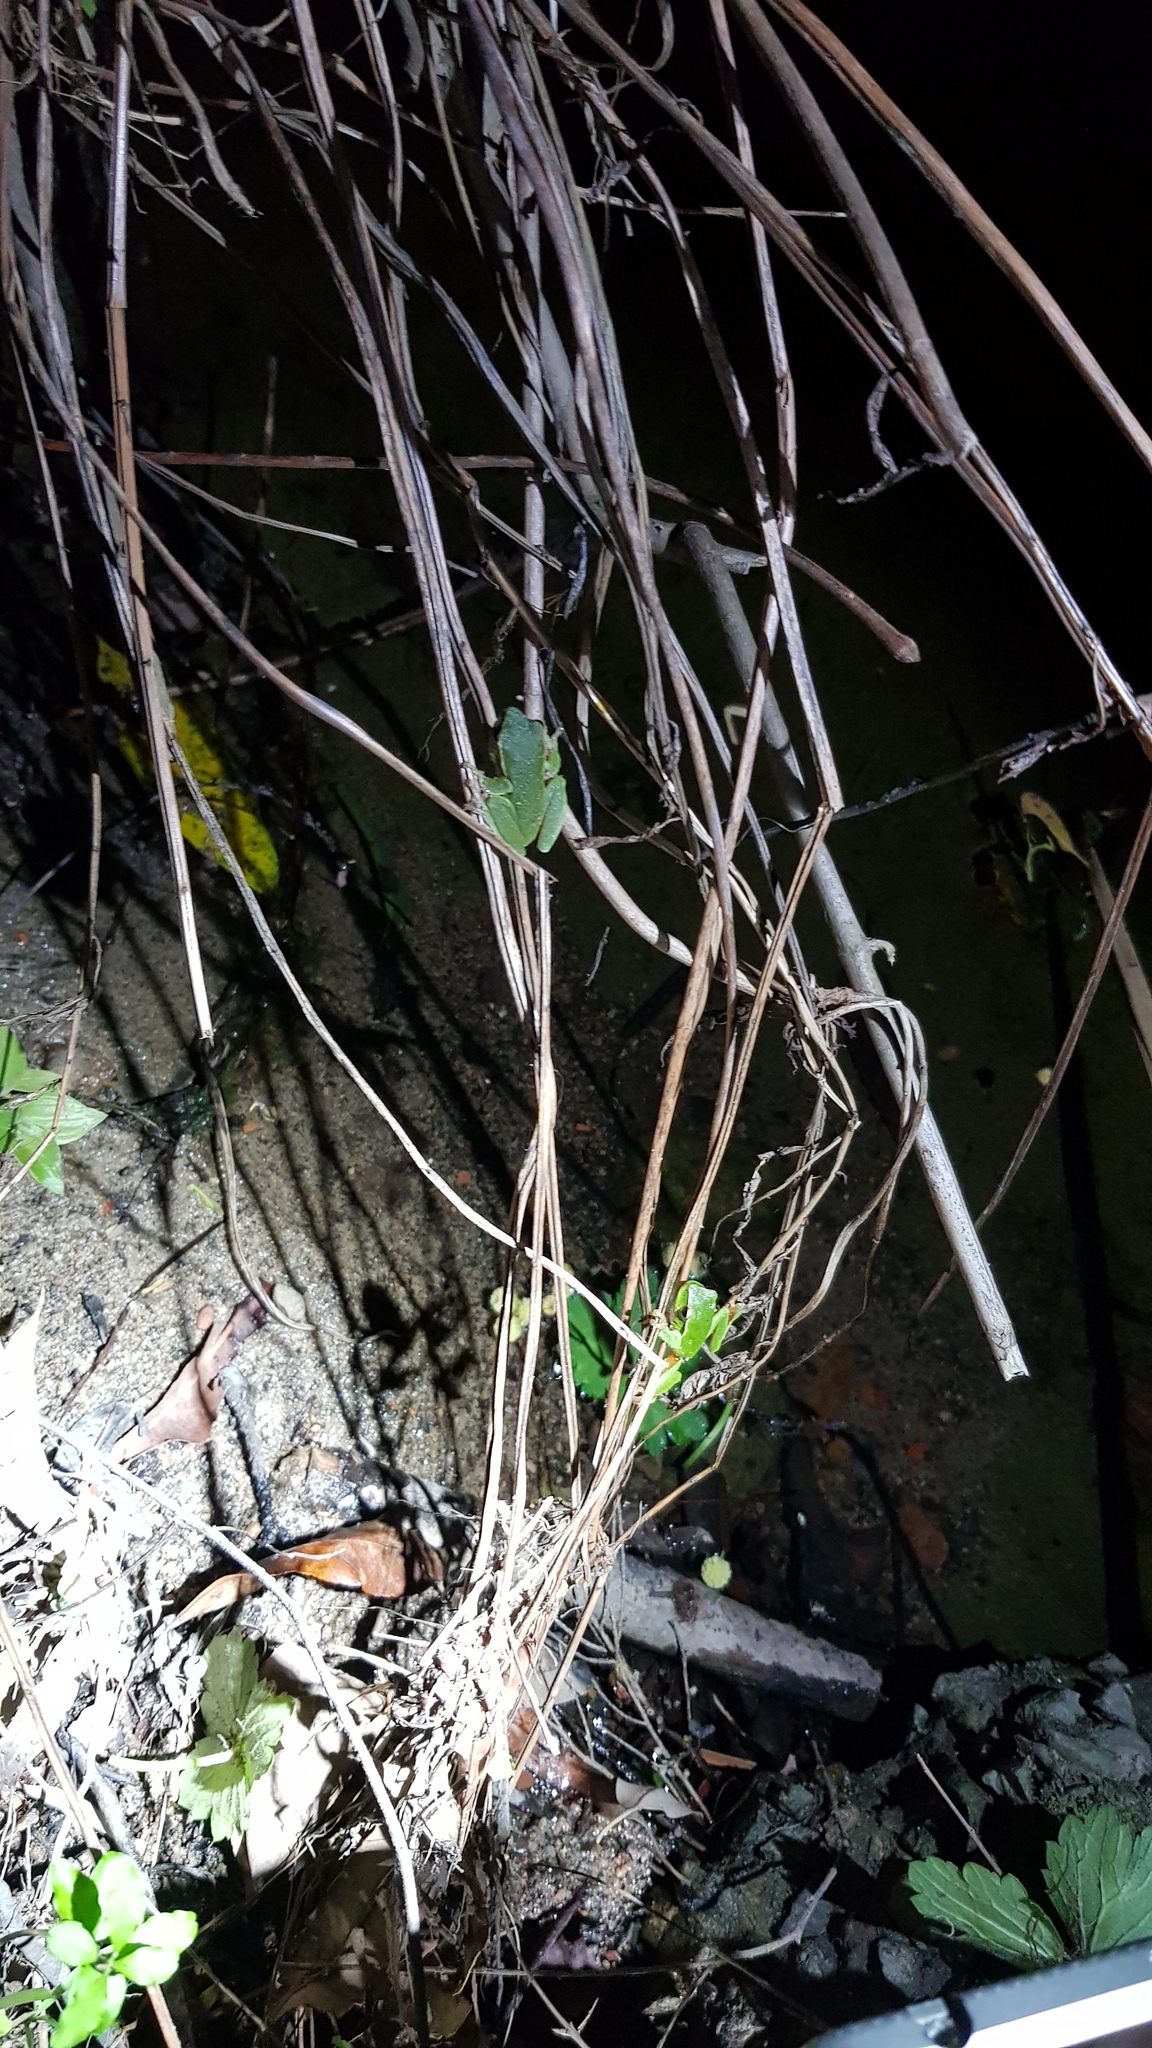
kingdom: Animalia
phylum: Chordata
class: Amphibia
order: Anura
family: Pelodryadidae
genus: Ranoidea
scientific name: Ranoidea phyllochroa
